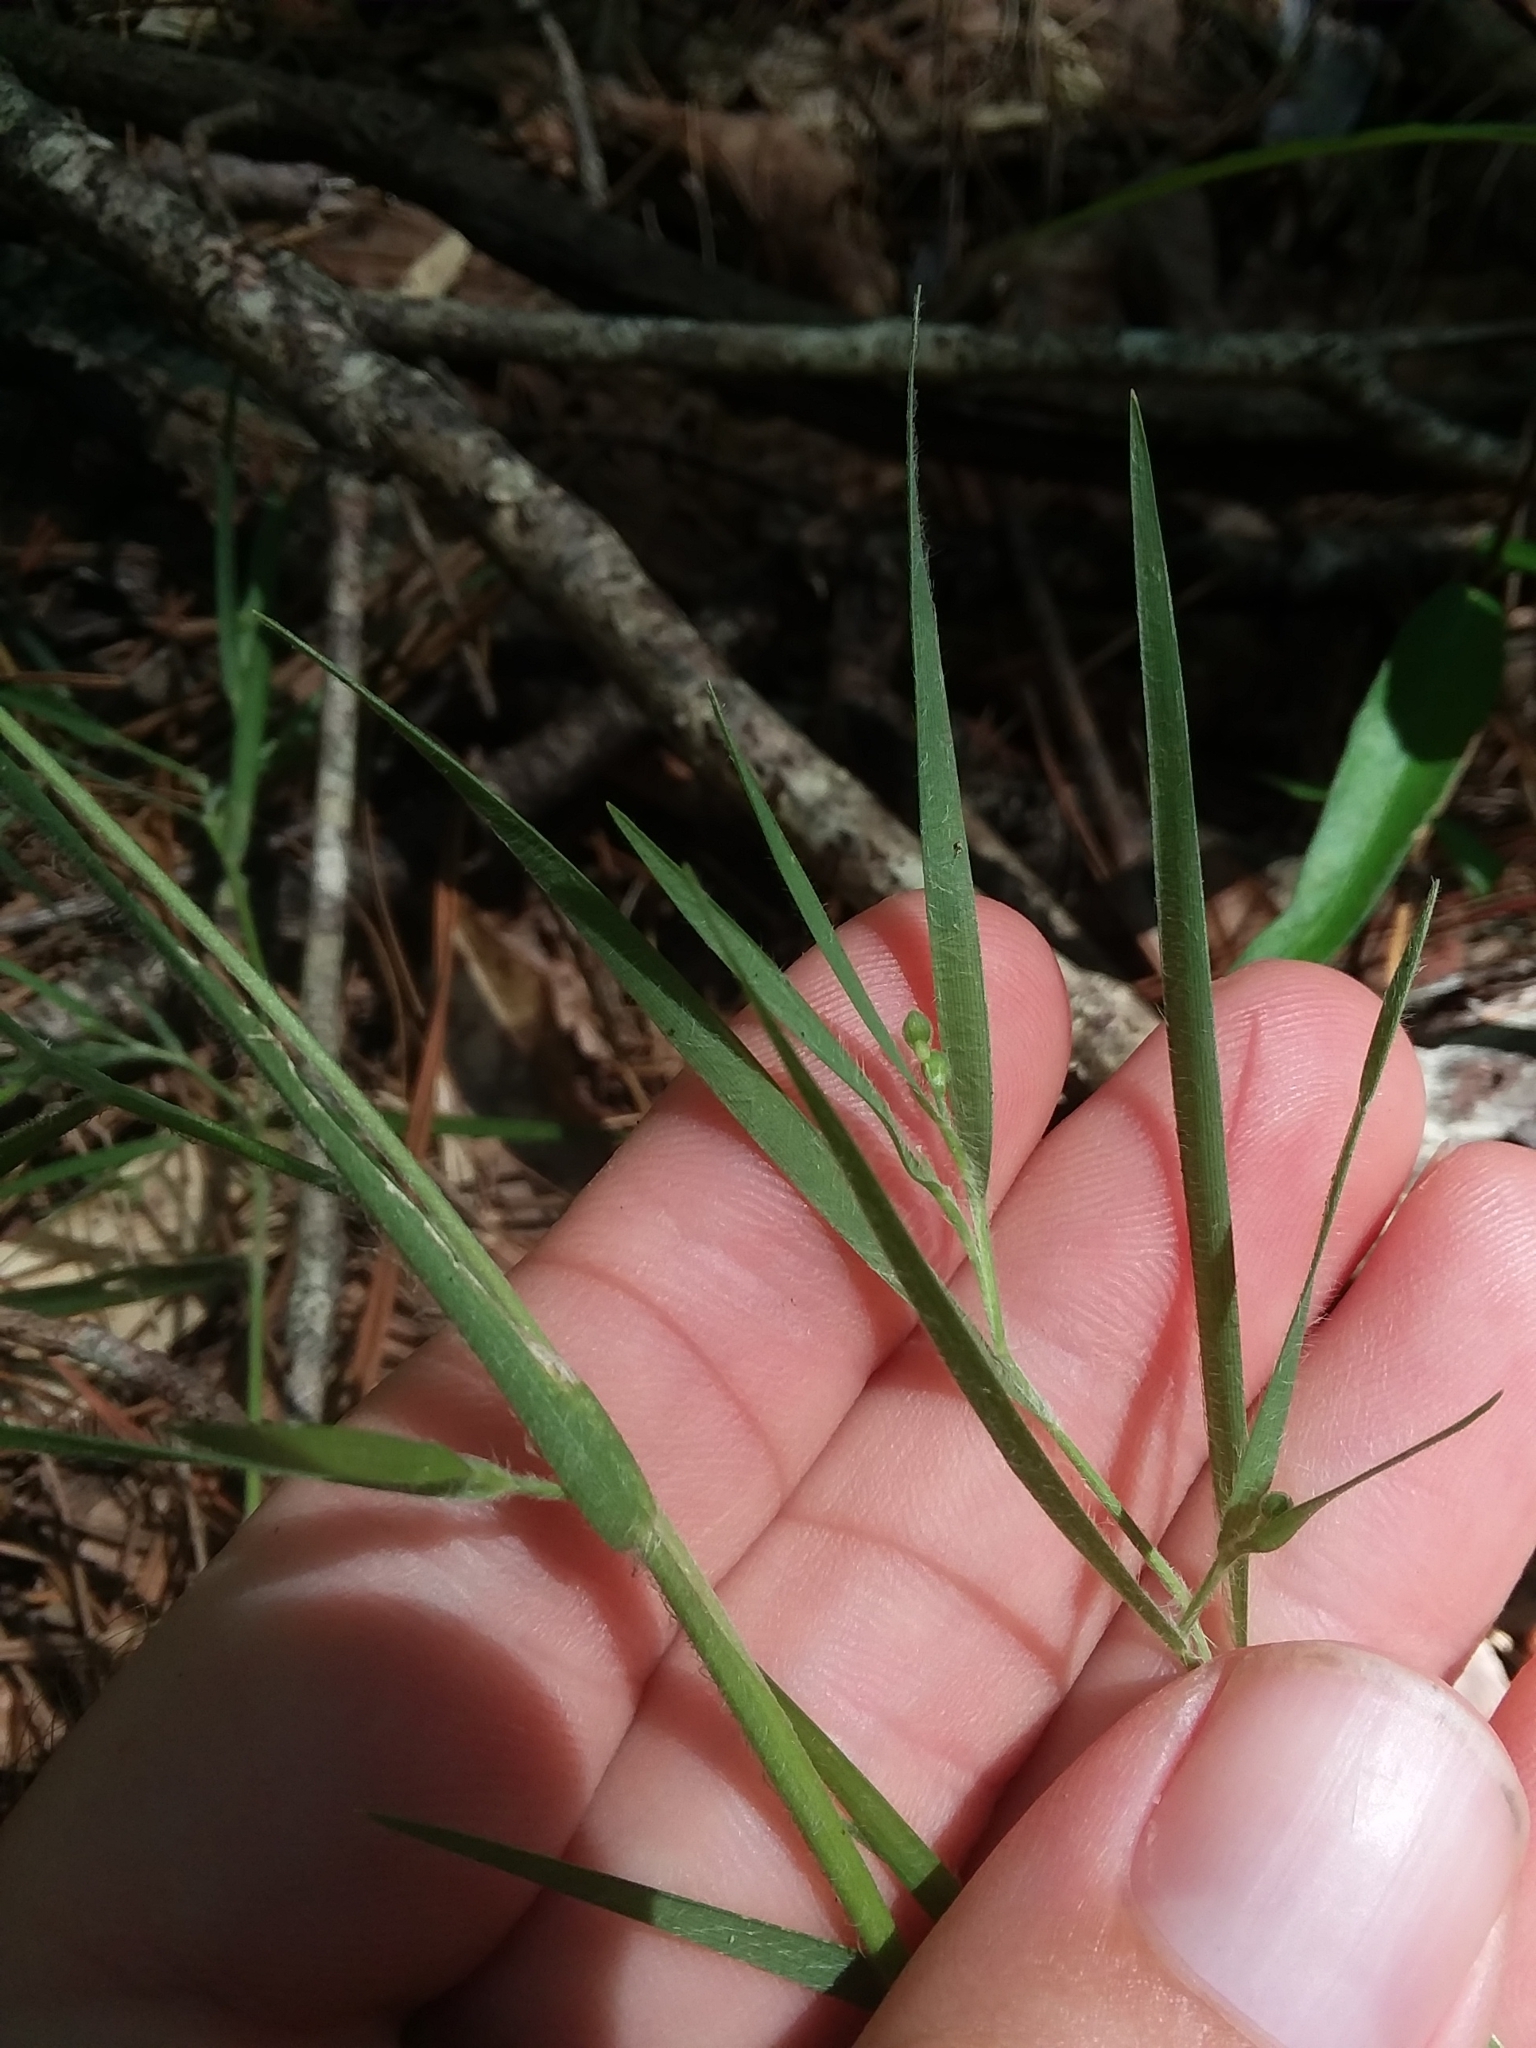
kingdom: Plantae
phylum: Tracheophyta
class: Liliopsida
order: Poales
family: Poaceae
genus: Dichanthelium
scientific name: Dichanthelium consanguineum
